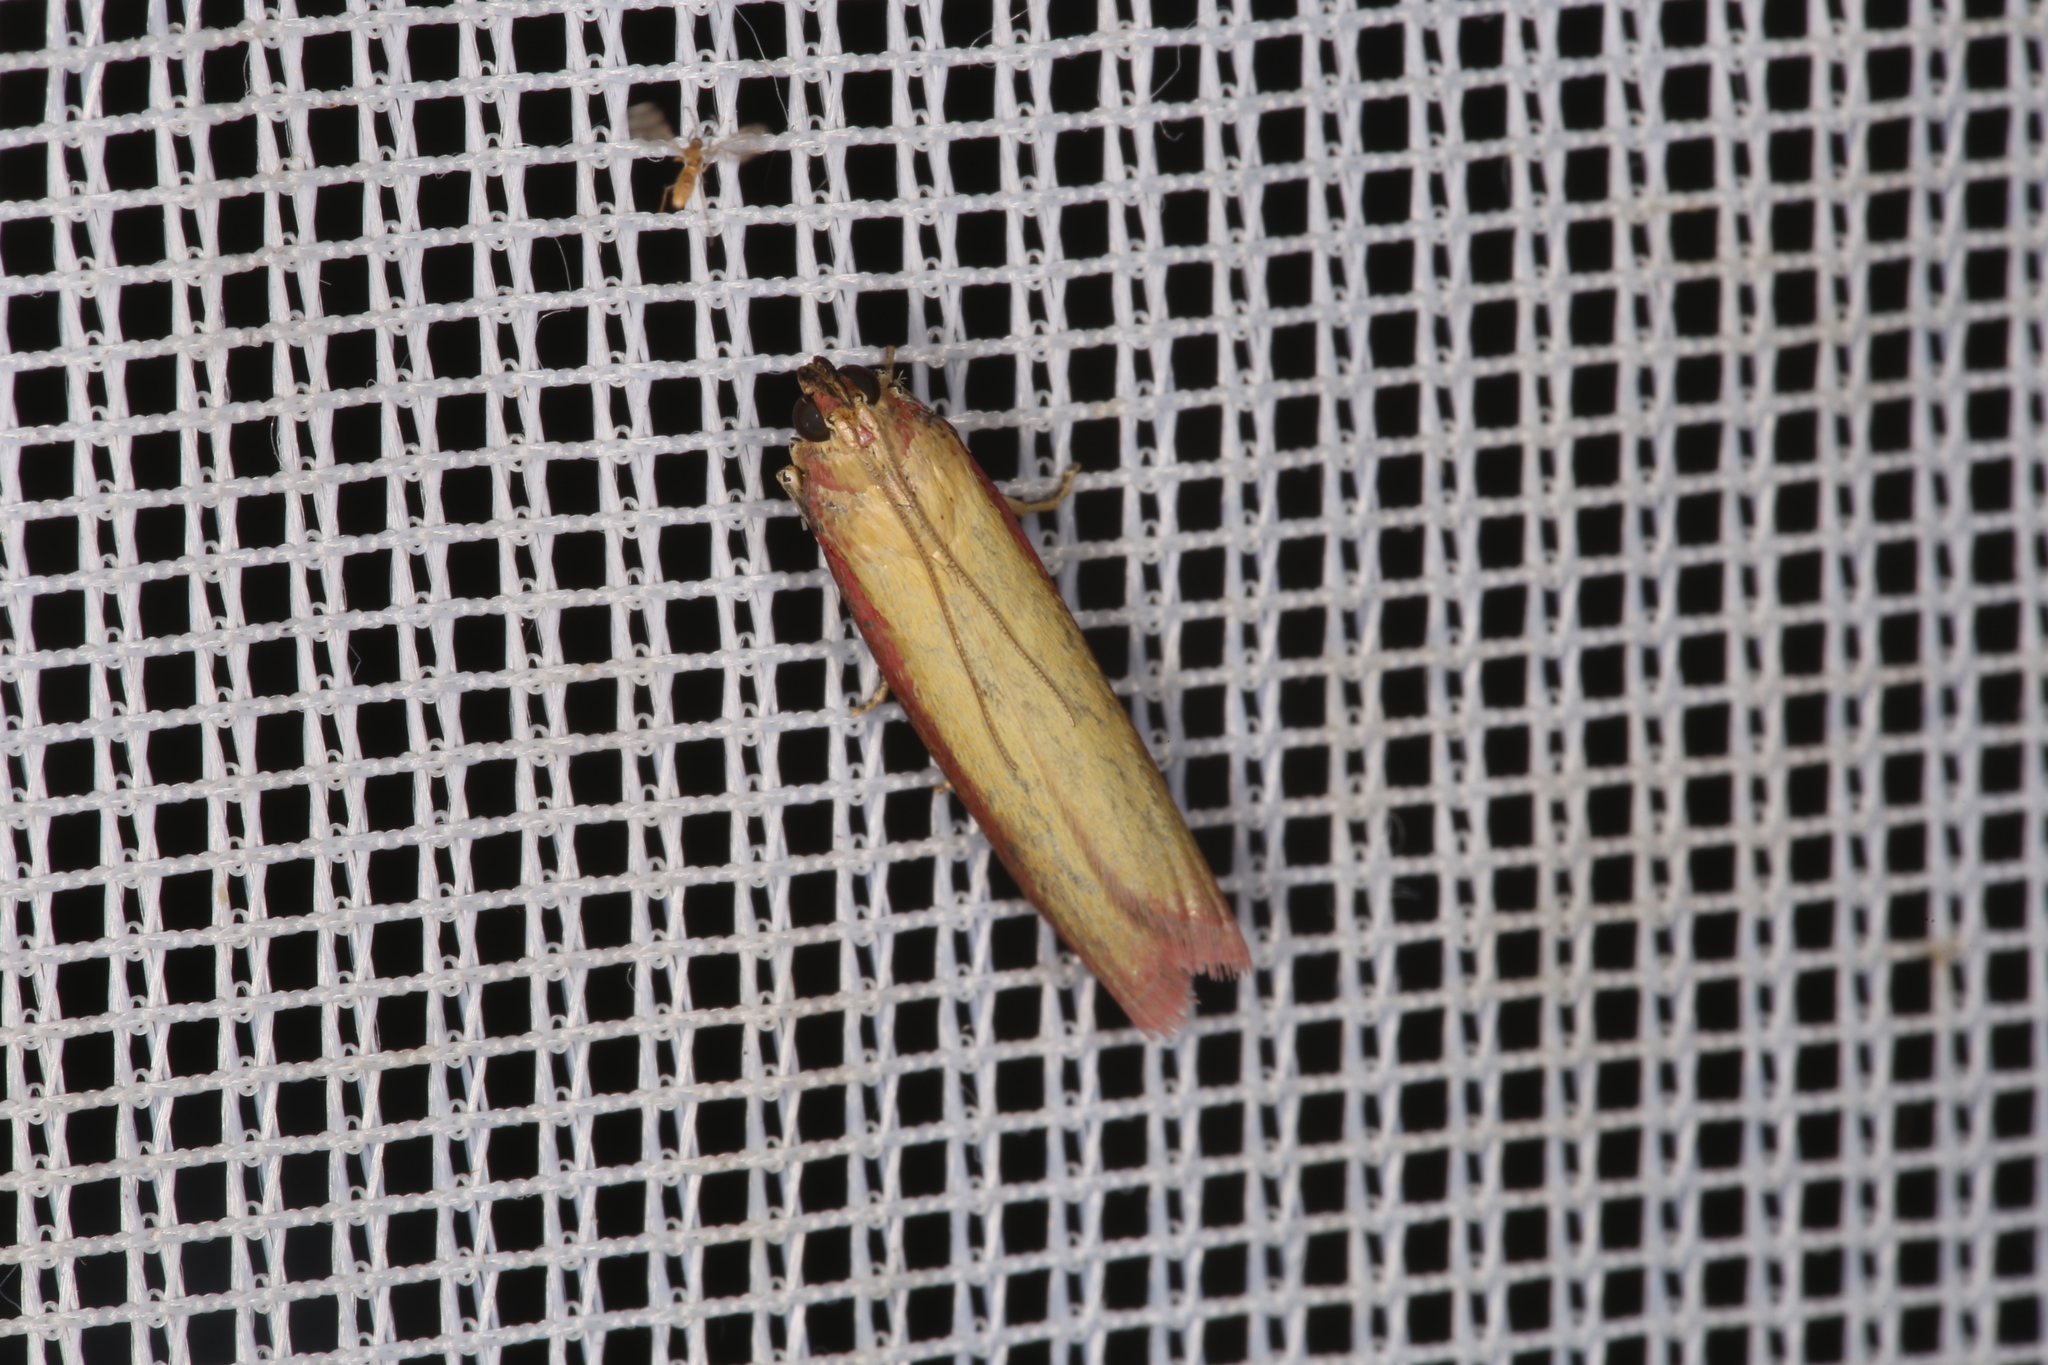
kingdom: Animalia
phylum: Arthropoda
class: Insecta
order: Lepidoptera
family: Pyralidae
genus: Oncocera
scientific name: Oncocera semirubella
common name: Rosy-striped knot-horn
